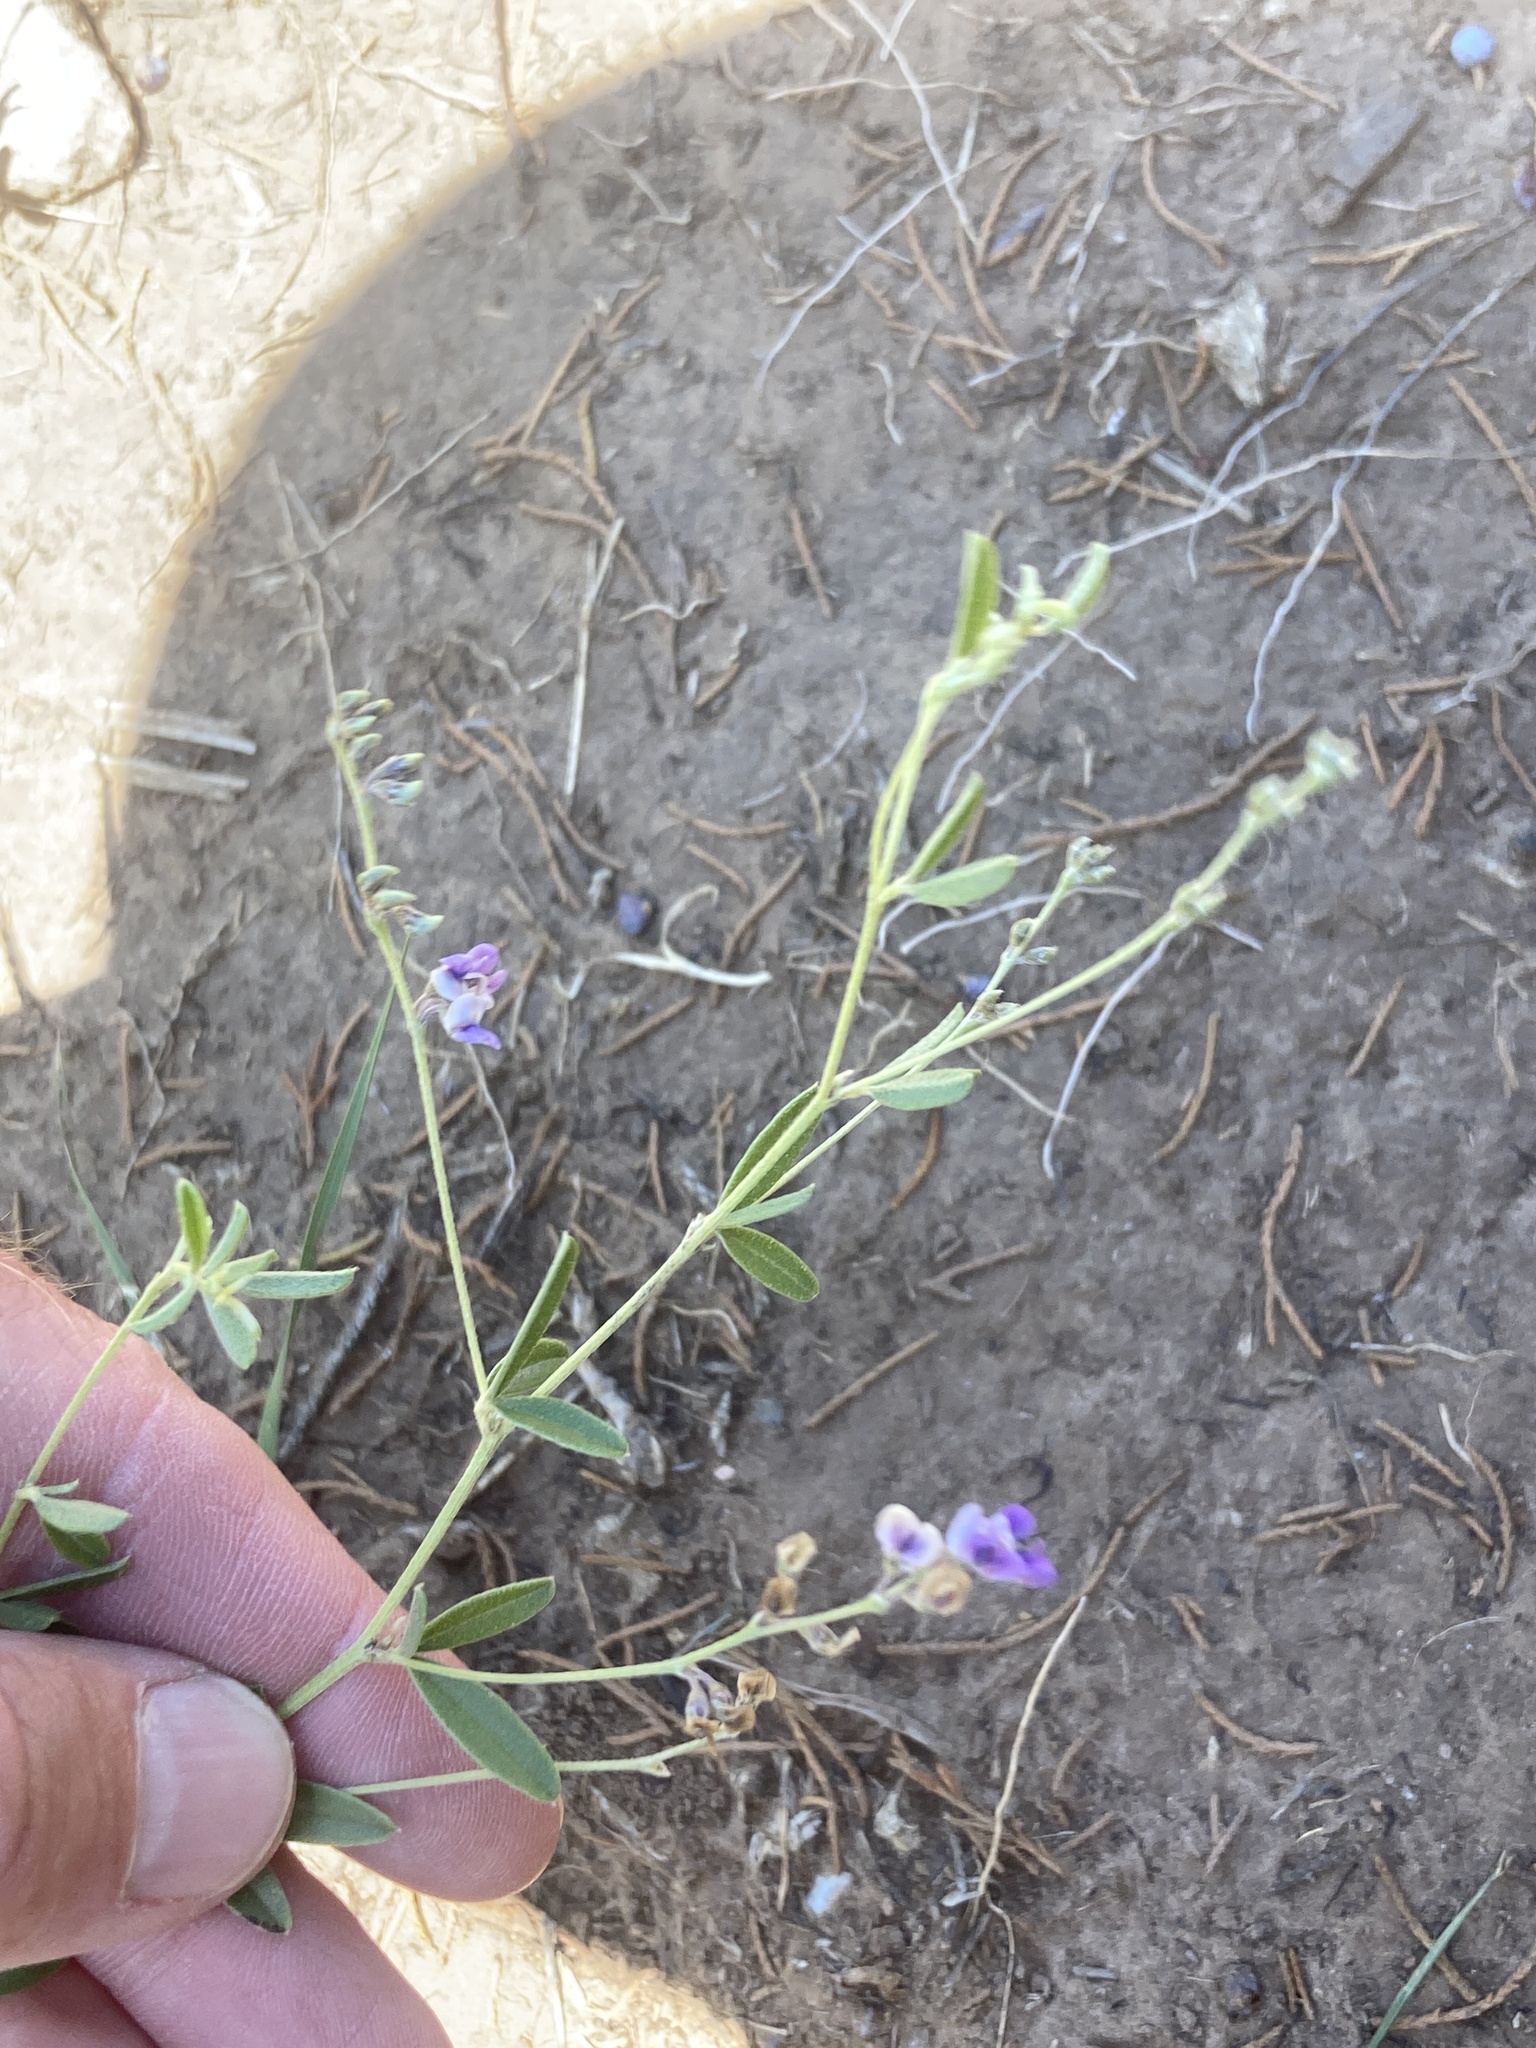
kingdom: Plantae
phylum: Tracheophyta
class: Magnoliopsida
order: Fabales
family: Fabaceae
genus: Pediomelum
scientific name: Pediomelum tenuiflorum
